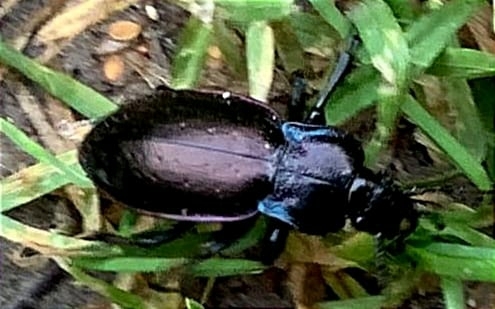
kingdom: Animalia
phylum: Arthropoda
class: Insecta
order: Coleoptera
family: Carabidae
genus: Carabus
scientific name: Carabus nemoralis
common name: European ground beetle
